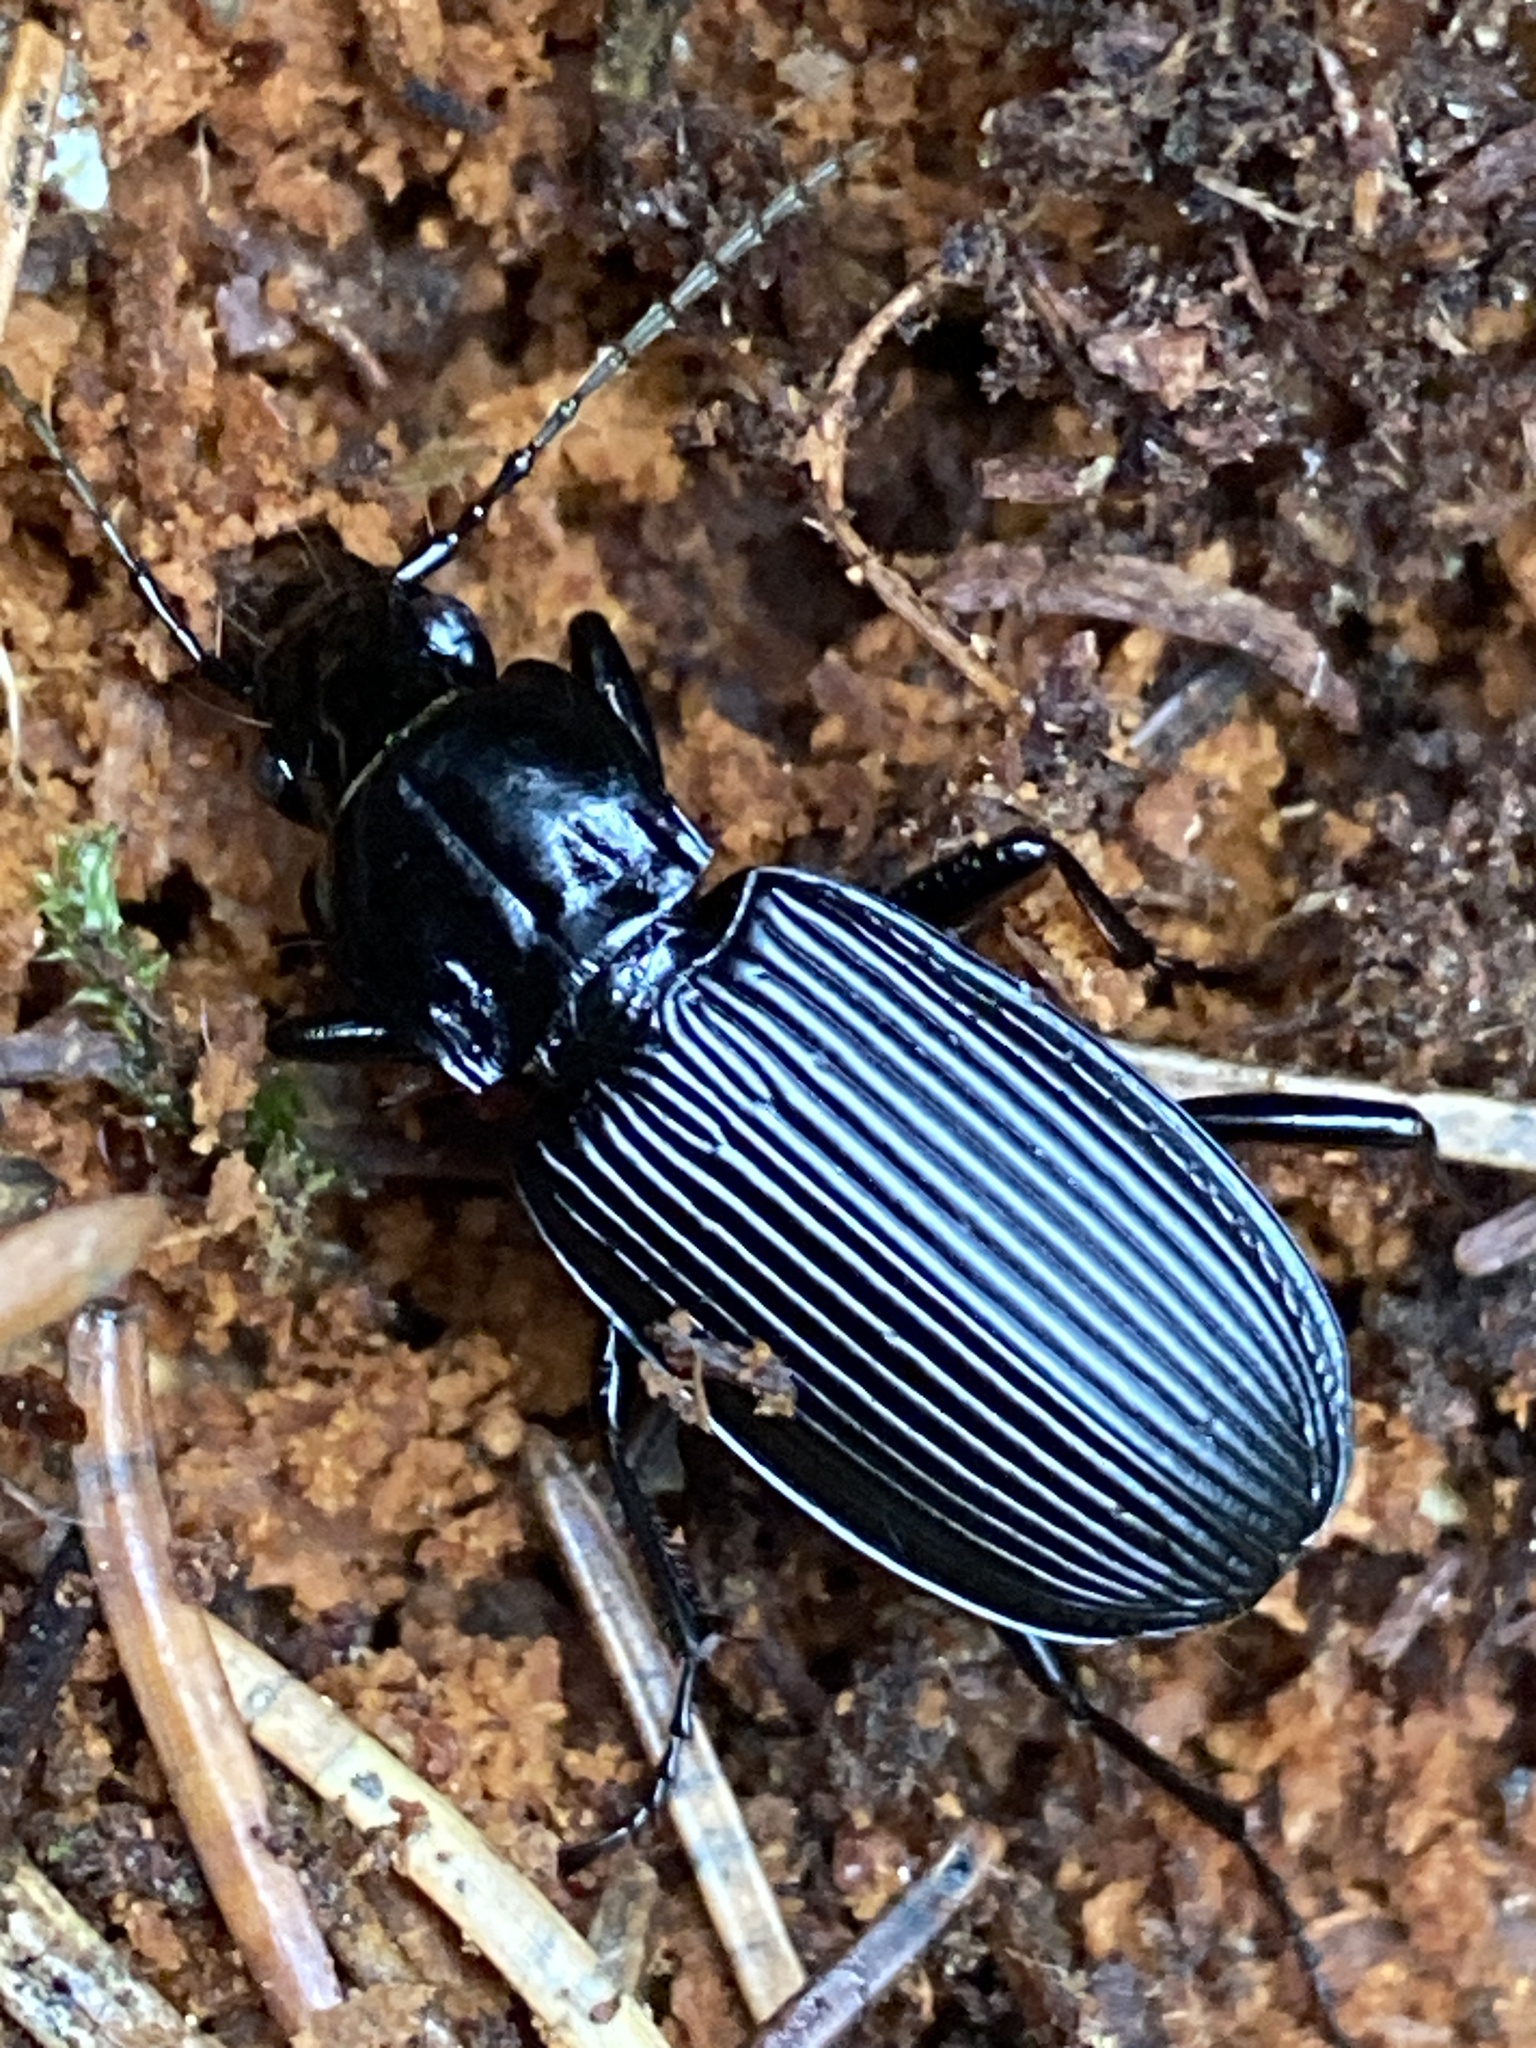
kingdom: Animalia
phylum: Arthropoda
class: Insecta
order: Coleoptera
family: Carabidae
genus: Pterostichus
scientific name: Pterostichus niger
